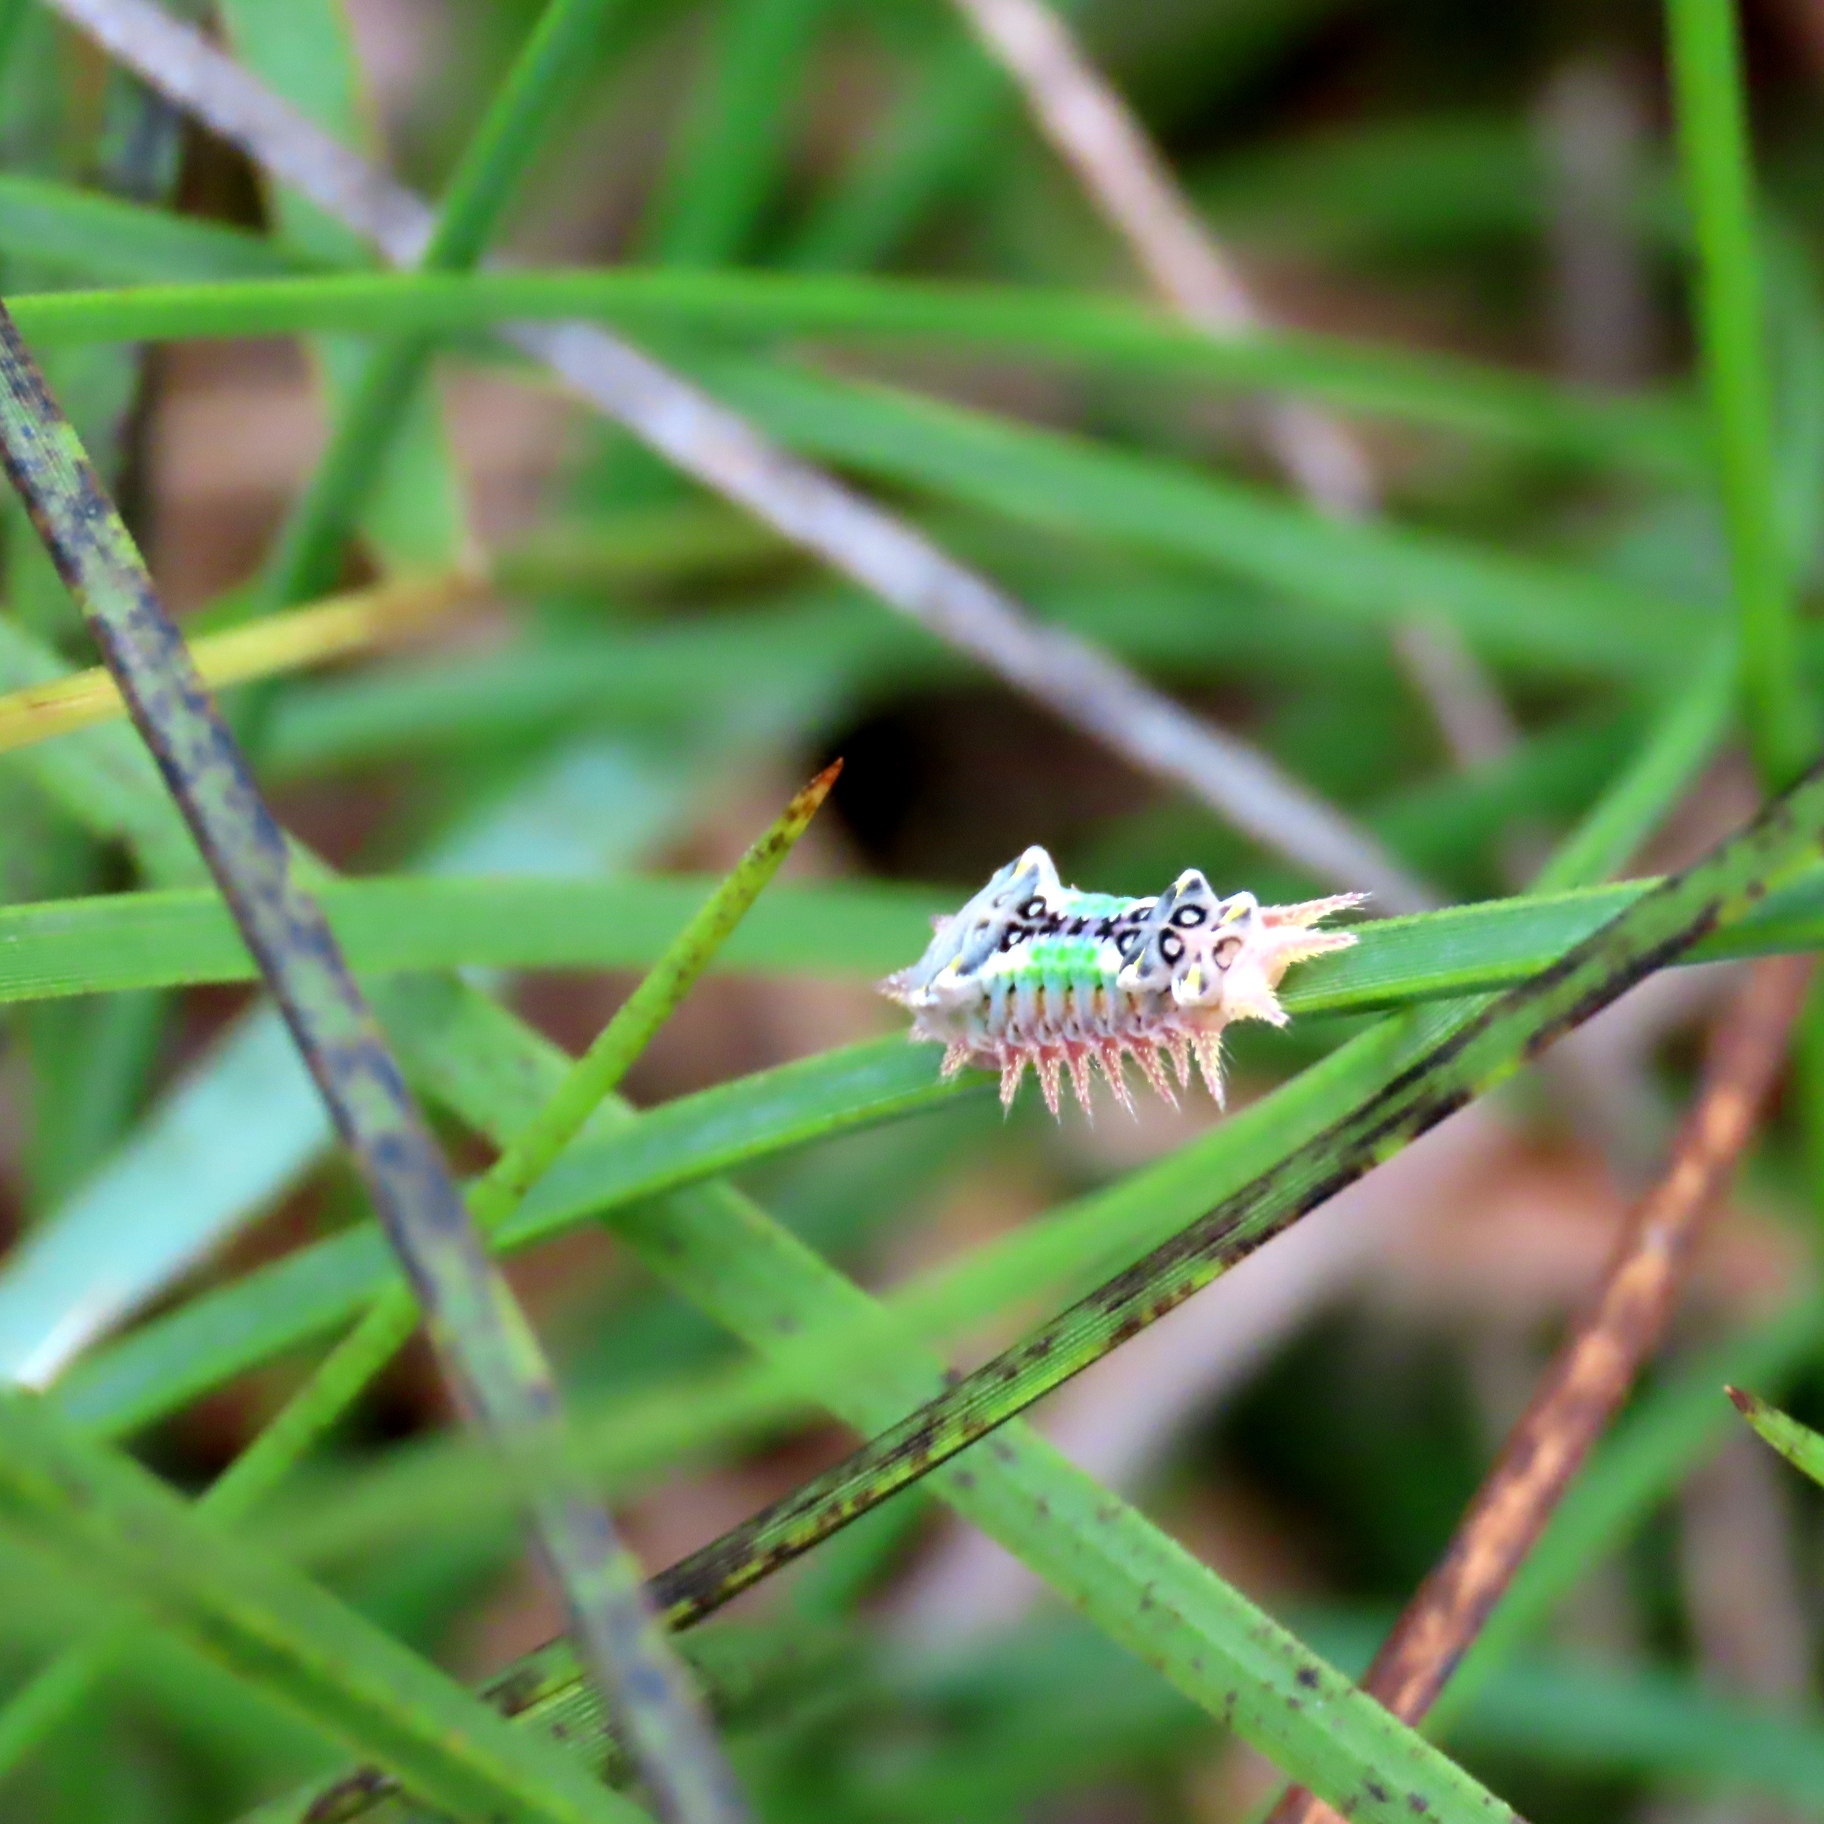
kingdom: Animalia
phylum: Arthropoda
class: Insecta
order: Lepidoptera
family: Limacodidae
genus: Doratifera
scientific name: Doratifera oxleyi
